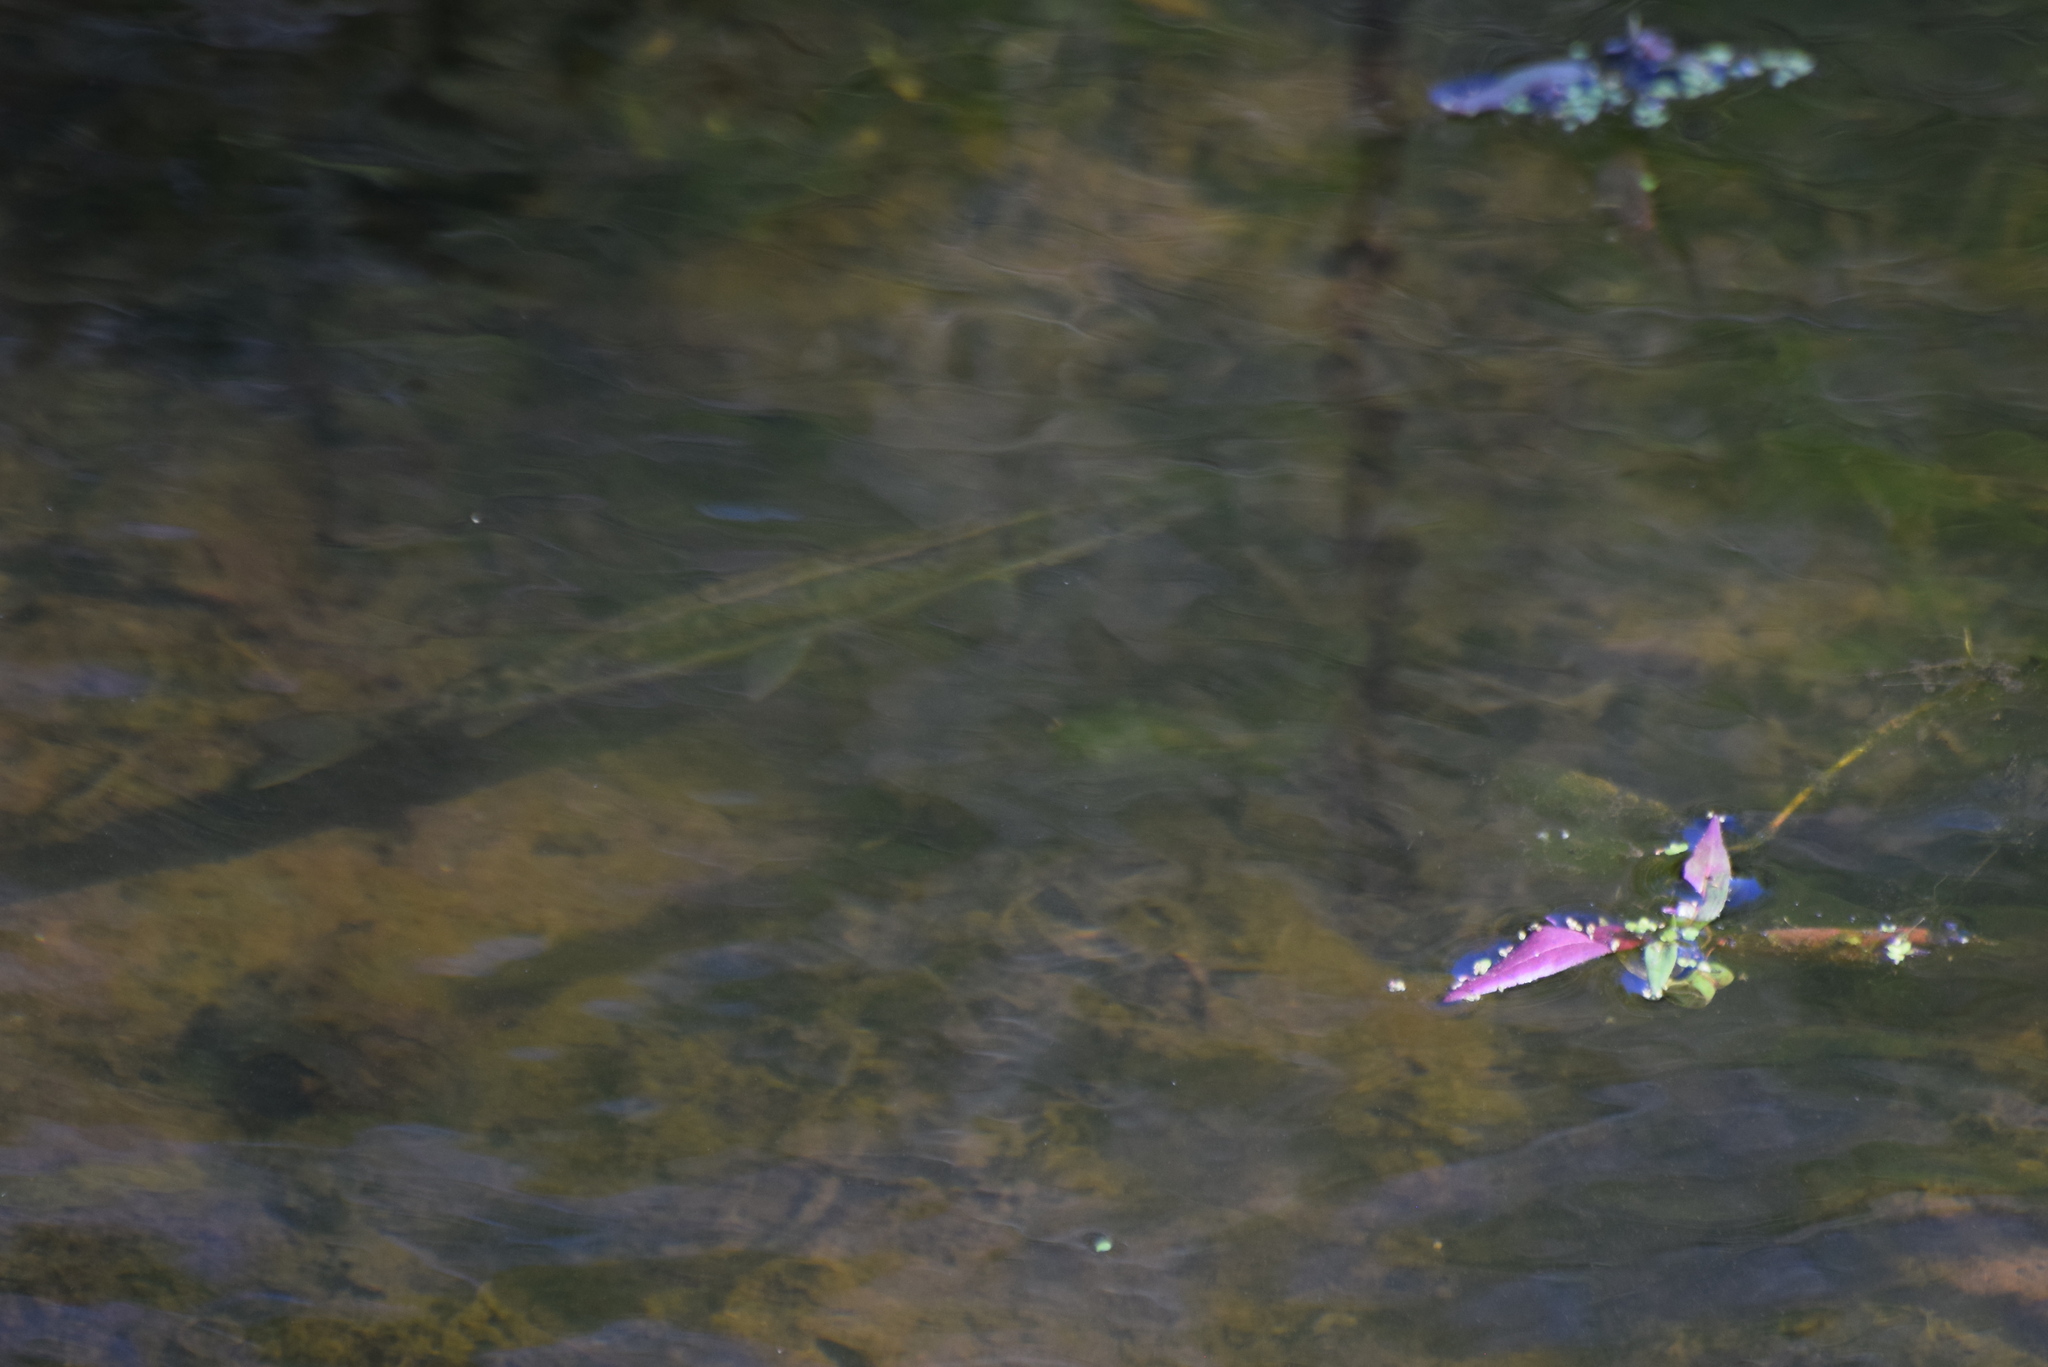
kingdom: Animalia
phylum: Chordata
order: Esociformes
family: Esocidae
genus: Esox
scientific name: Esox niger
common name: Chain pickerel
